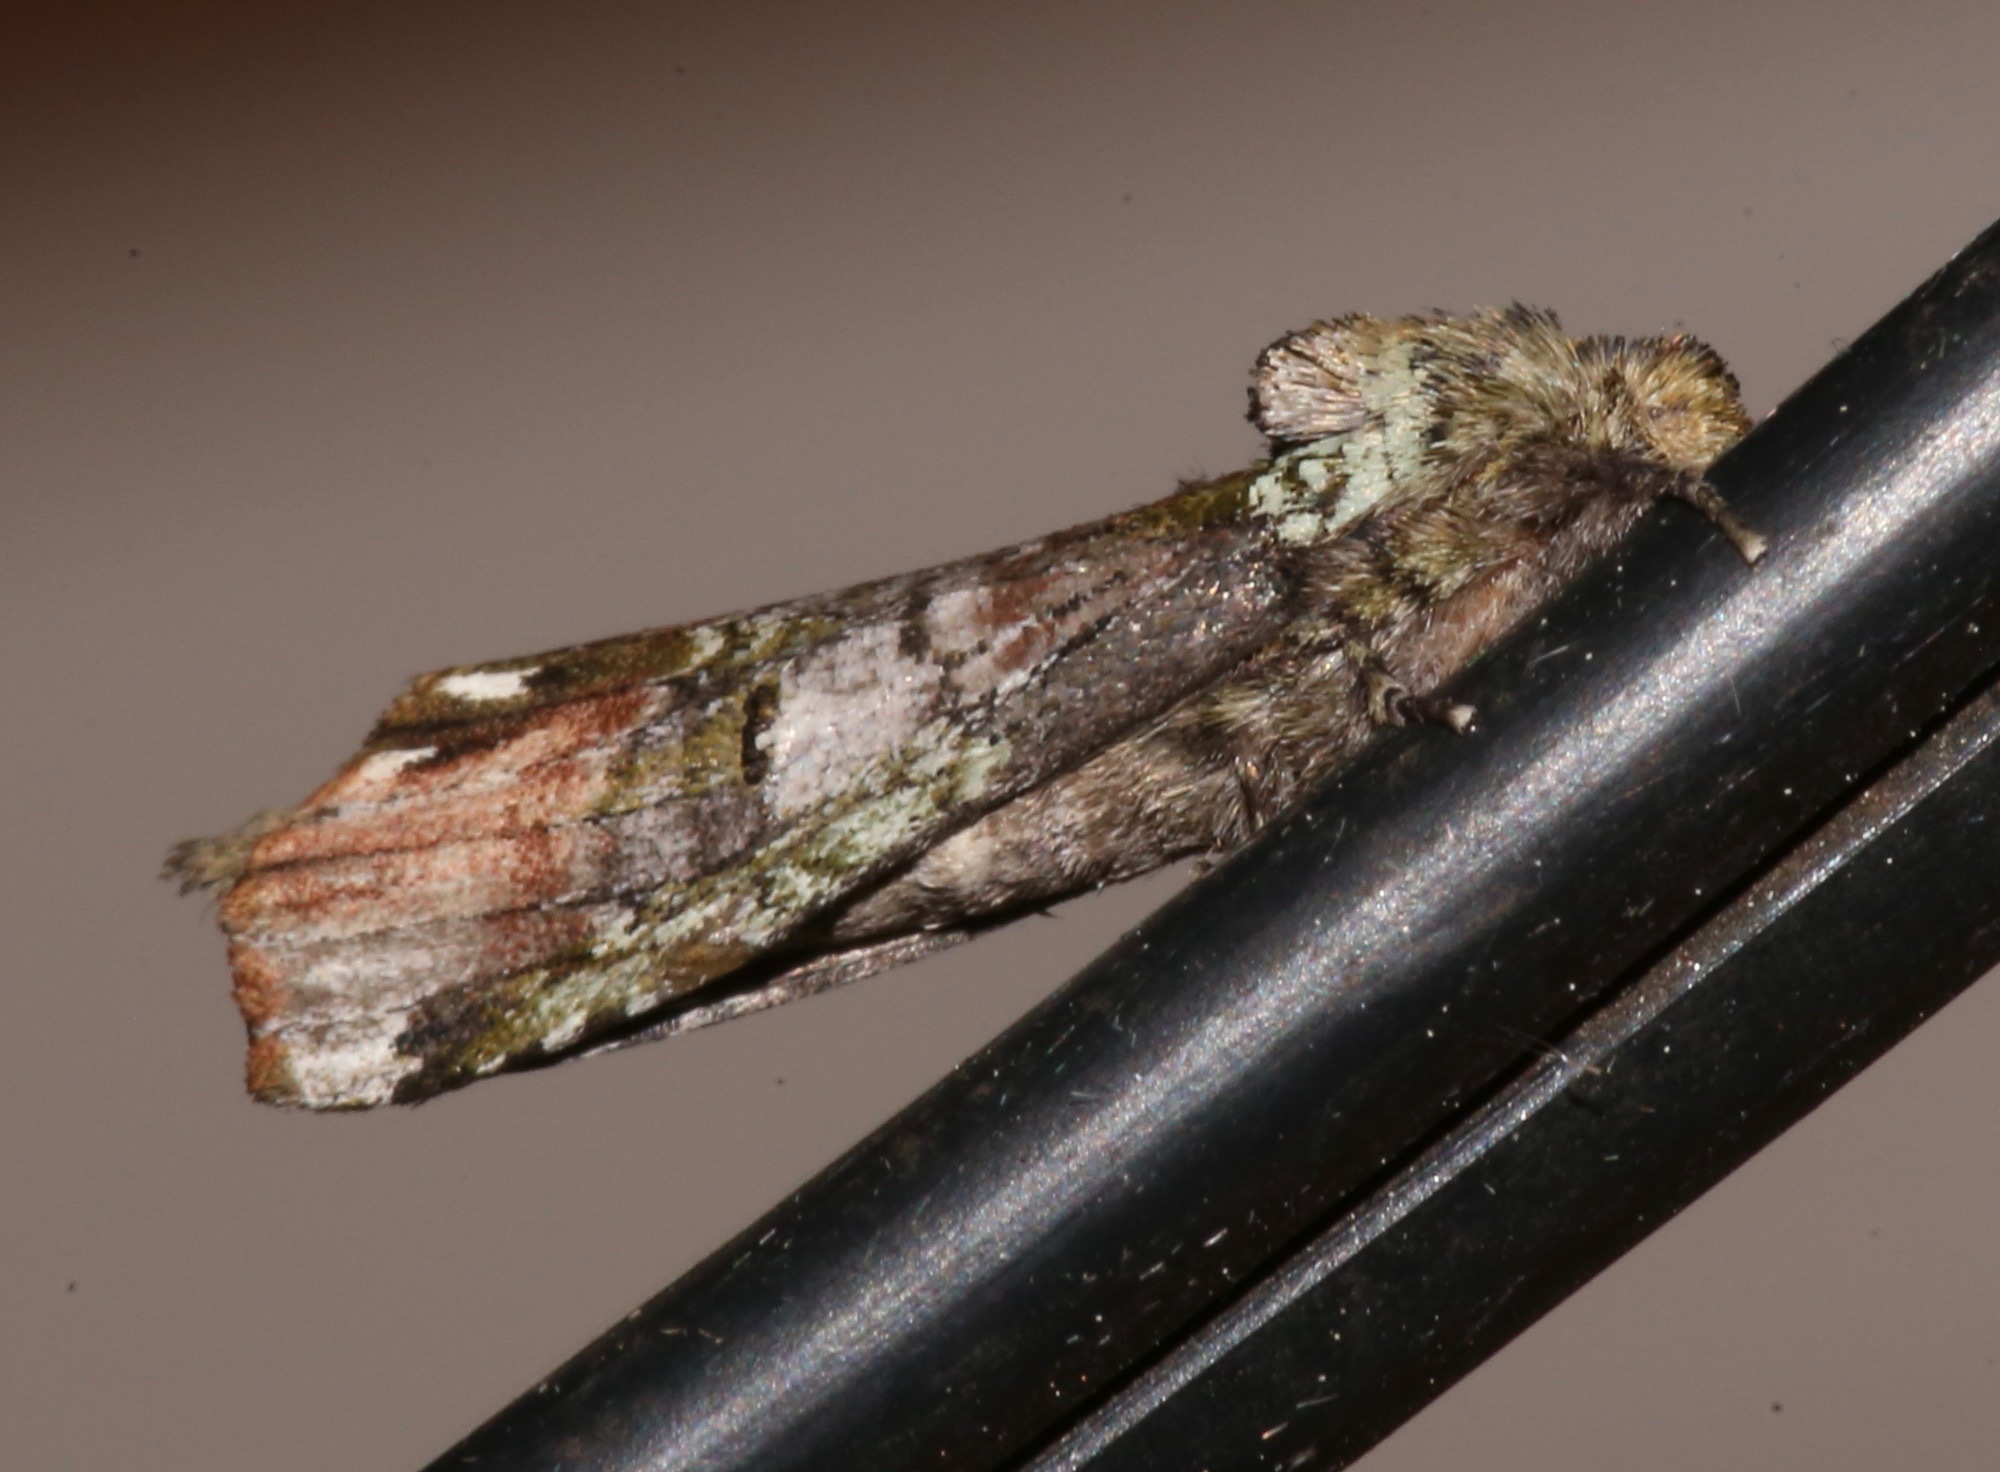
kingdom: Animalia
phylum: Arthropoda
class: Insecta
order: Lepidoptera
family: Notodontidae
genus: Schizura
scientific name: Schizura
